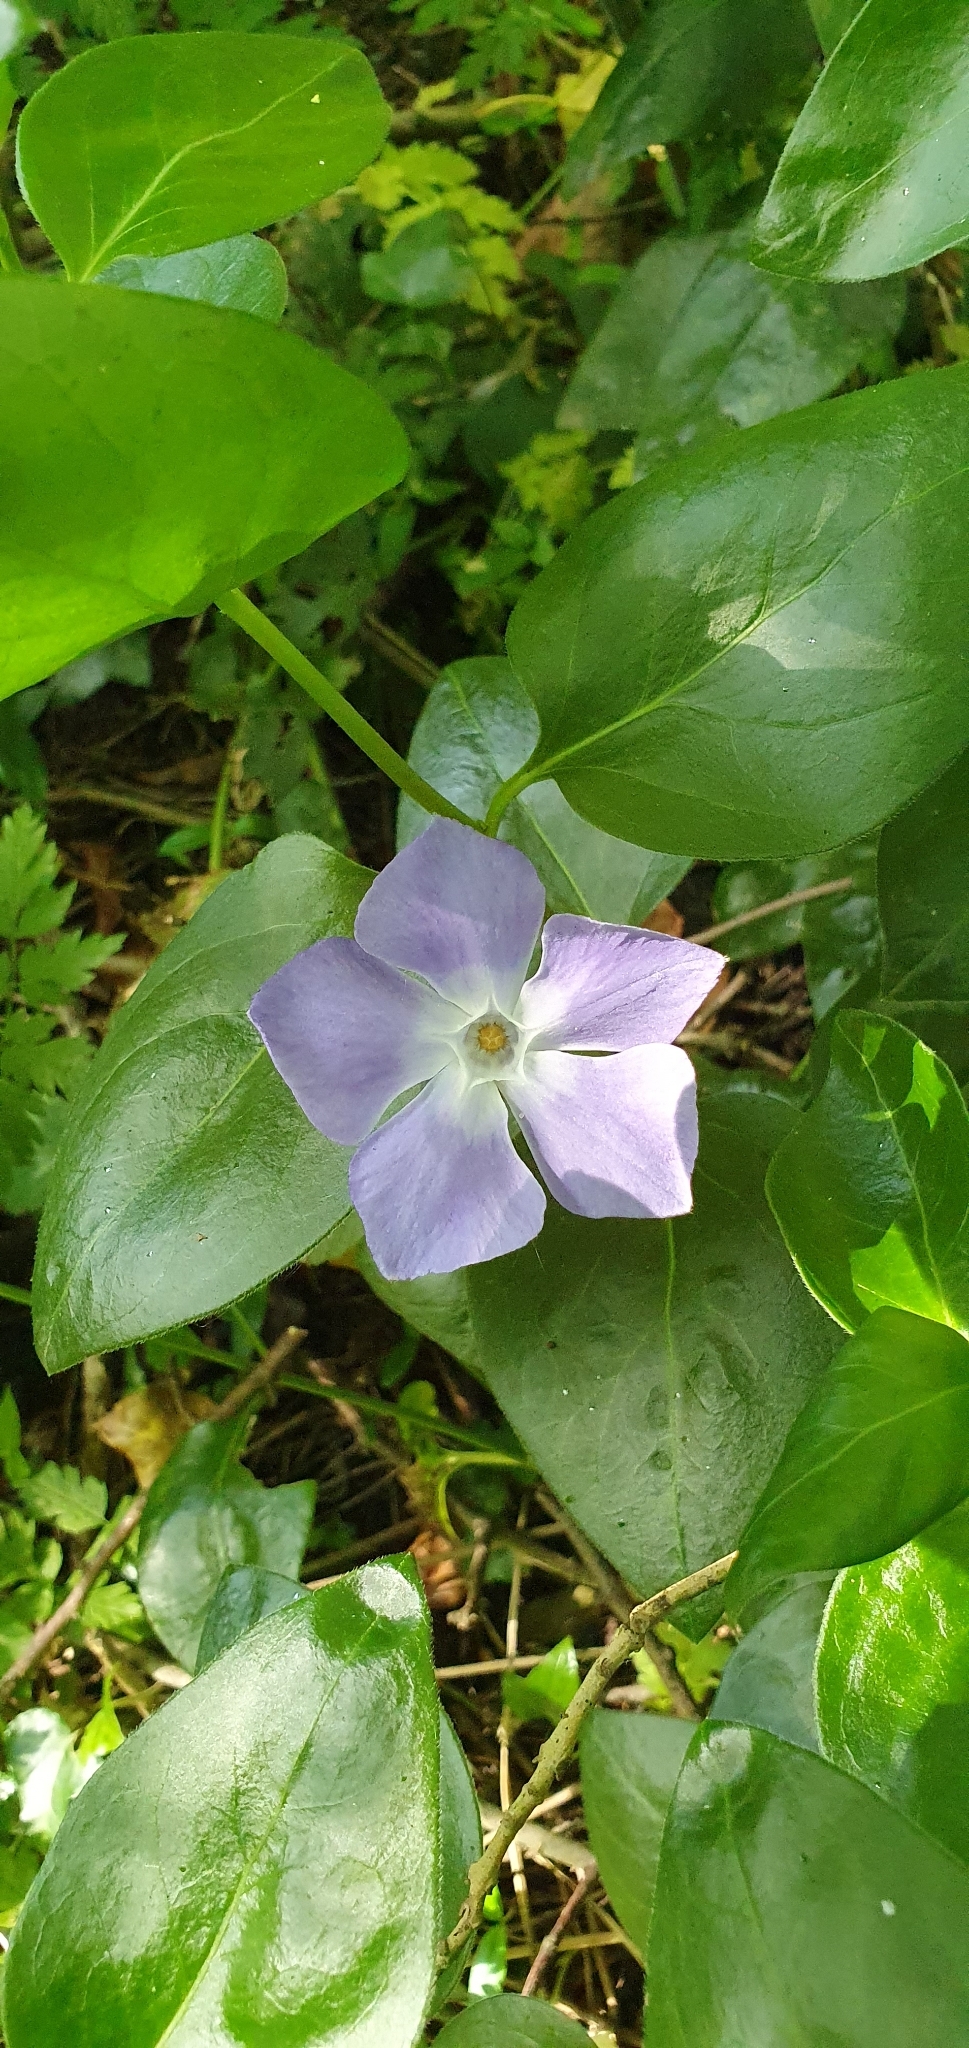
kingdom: Plantae
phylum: Tracheophyta
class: Magnoliopsida
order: Gentianales
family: Apocynaceae
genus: Vinca
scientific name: Vinca major
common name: Greater periwinkle
